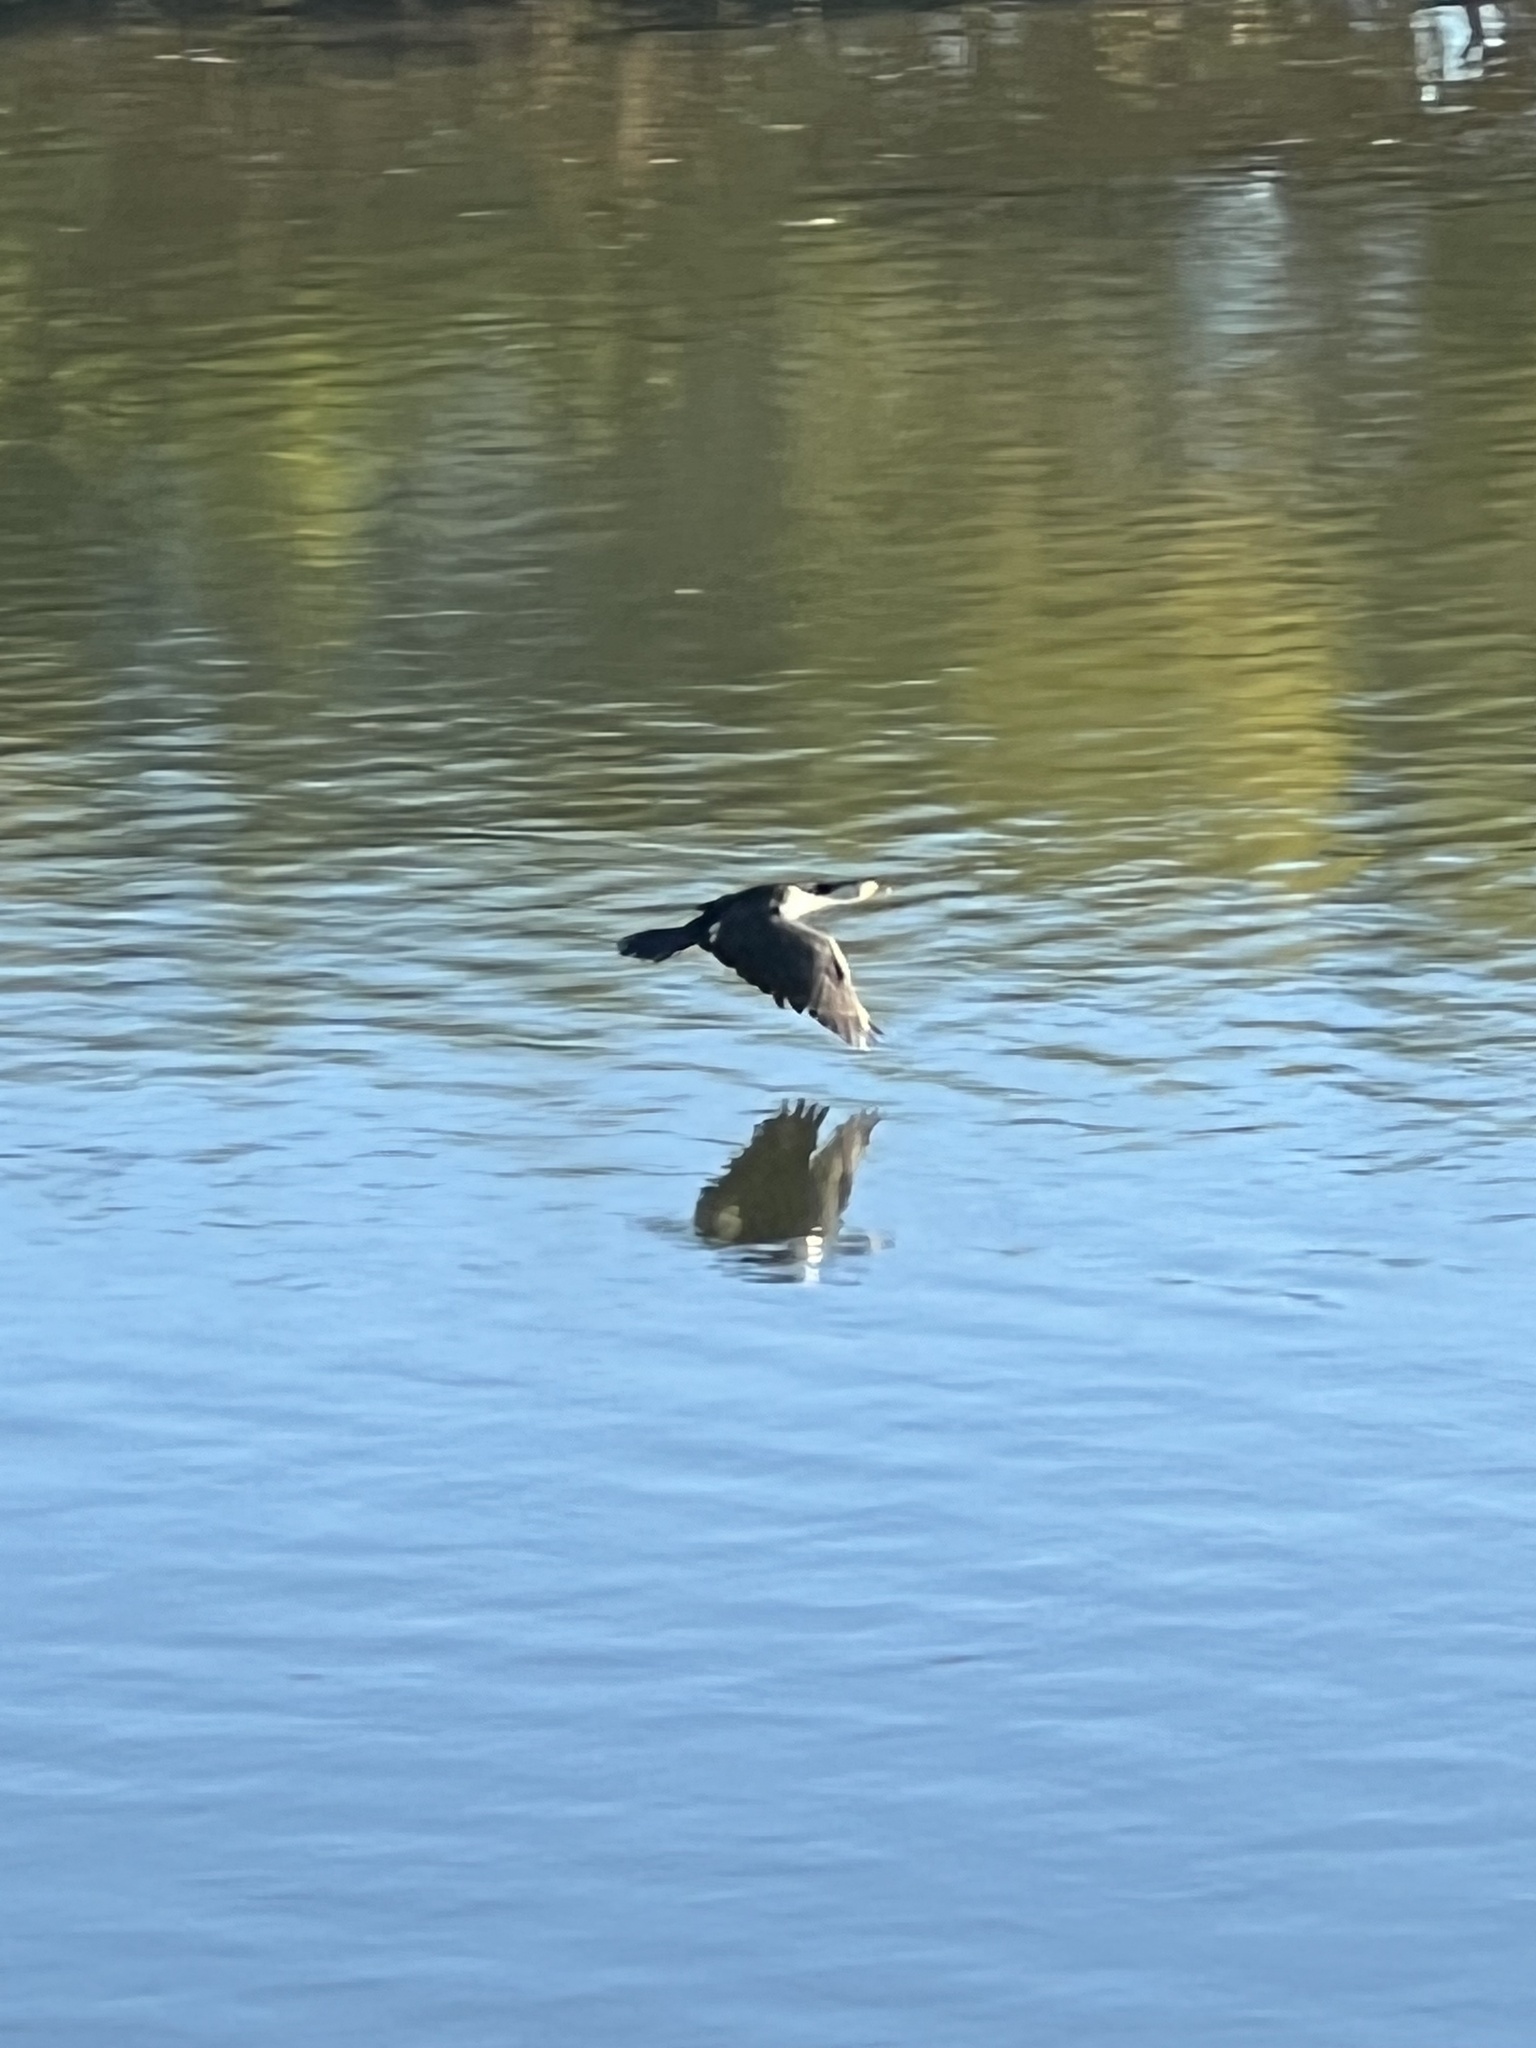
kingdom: Animalia
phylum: Chordata
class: Aves
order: Suliformes
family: Phalacrocoracidae
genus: Microcarbo
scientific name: Microcarbo melanoleucos
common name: Little pied cormorant
